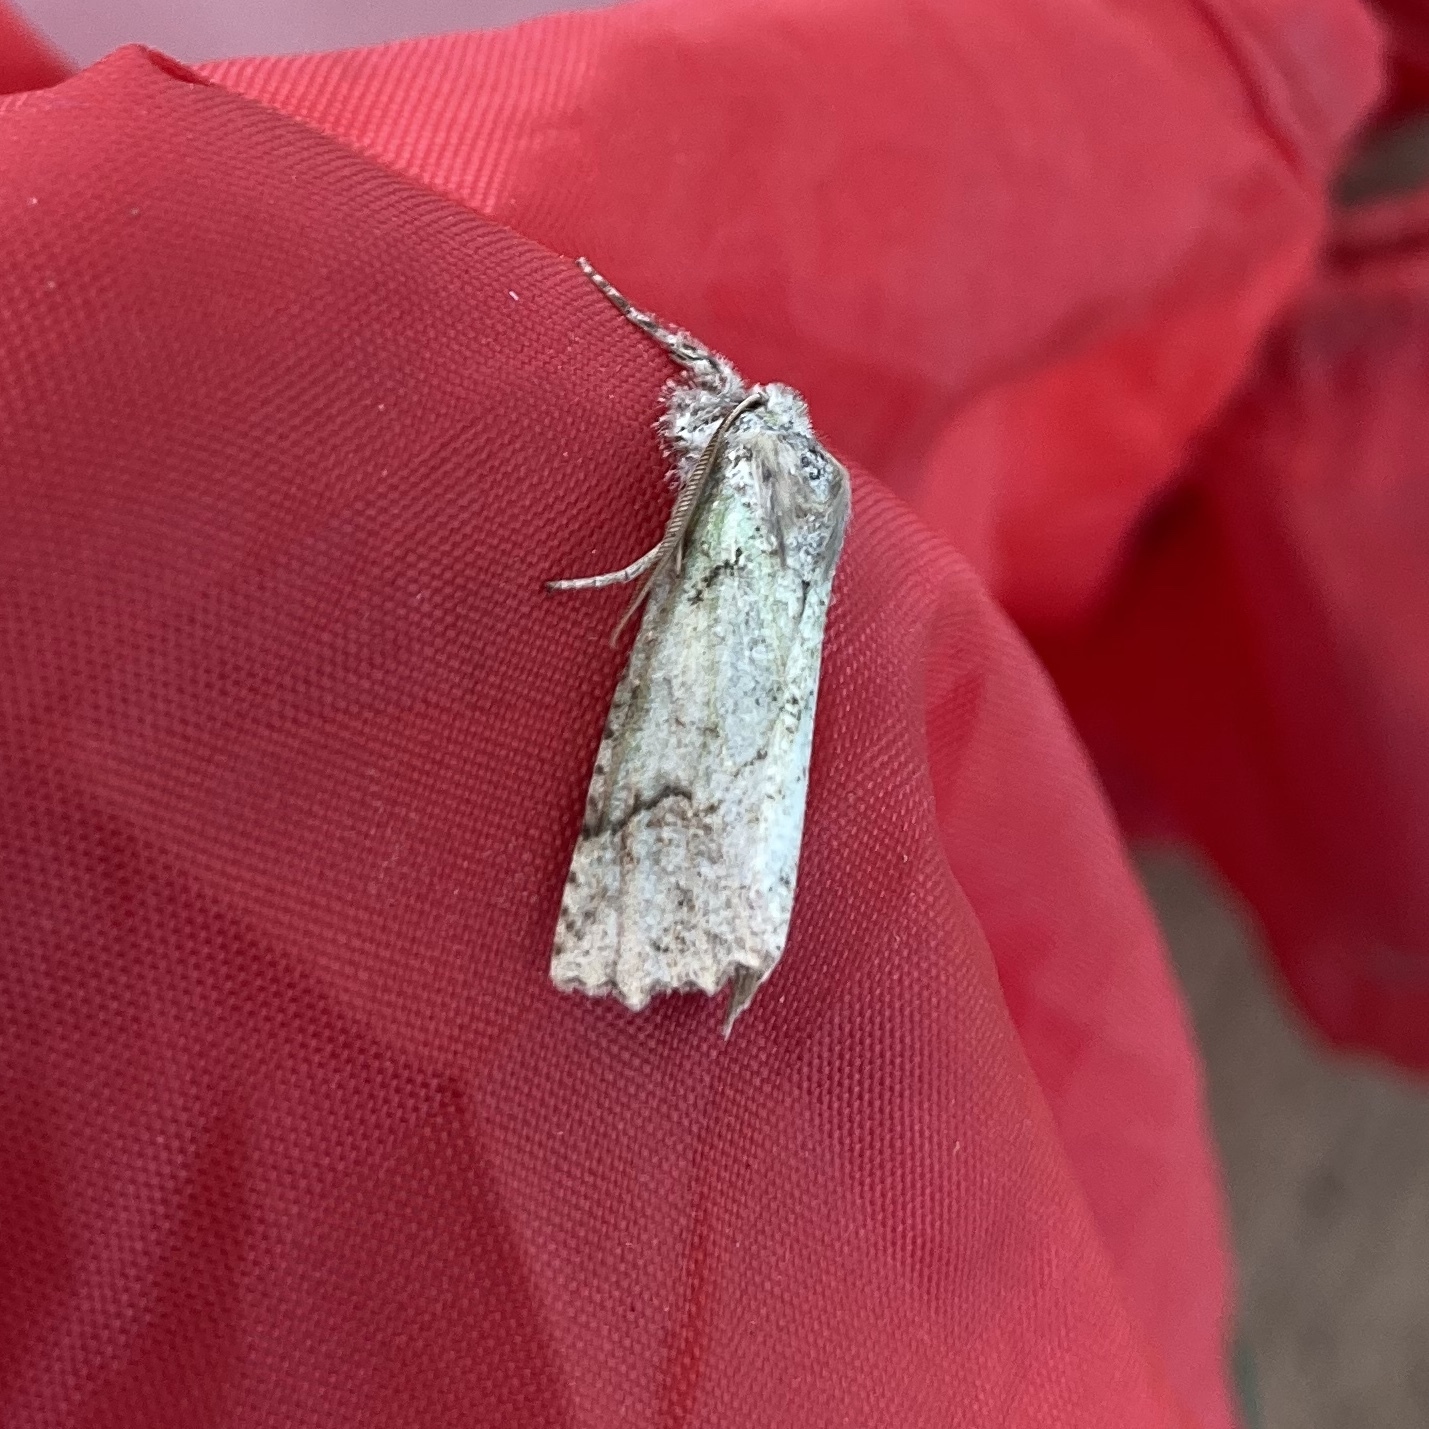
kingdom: Animalia
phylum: Arthropoda
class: Insecta
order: Lepidoptera
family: Geometridae
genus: Declana
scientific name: Declana floccosa
